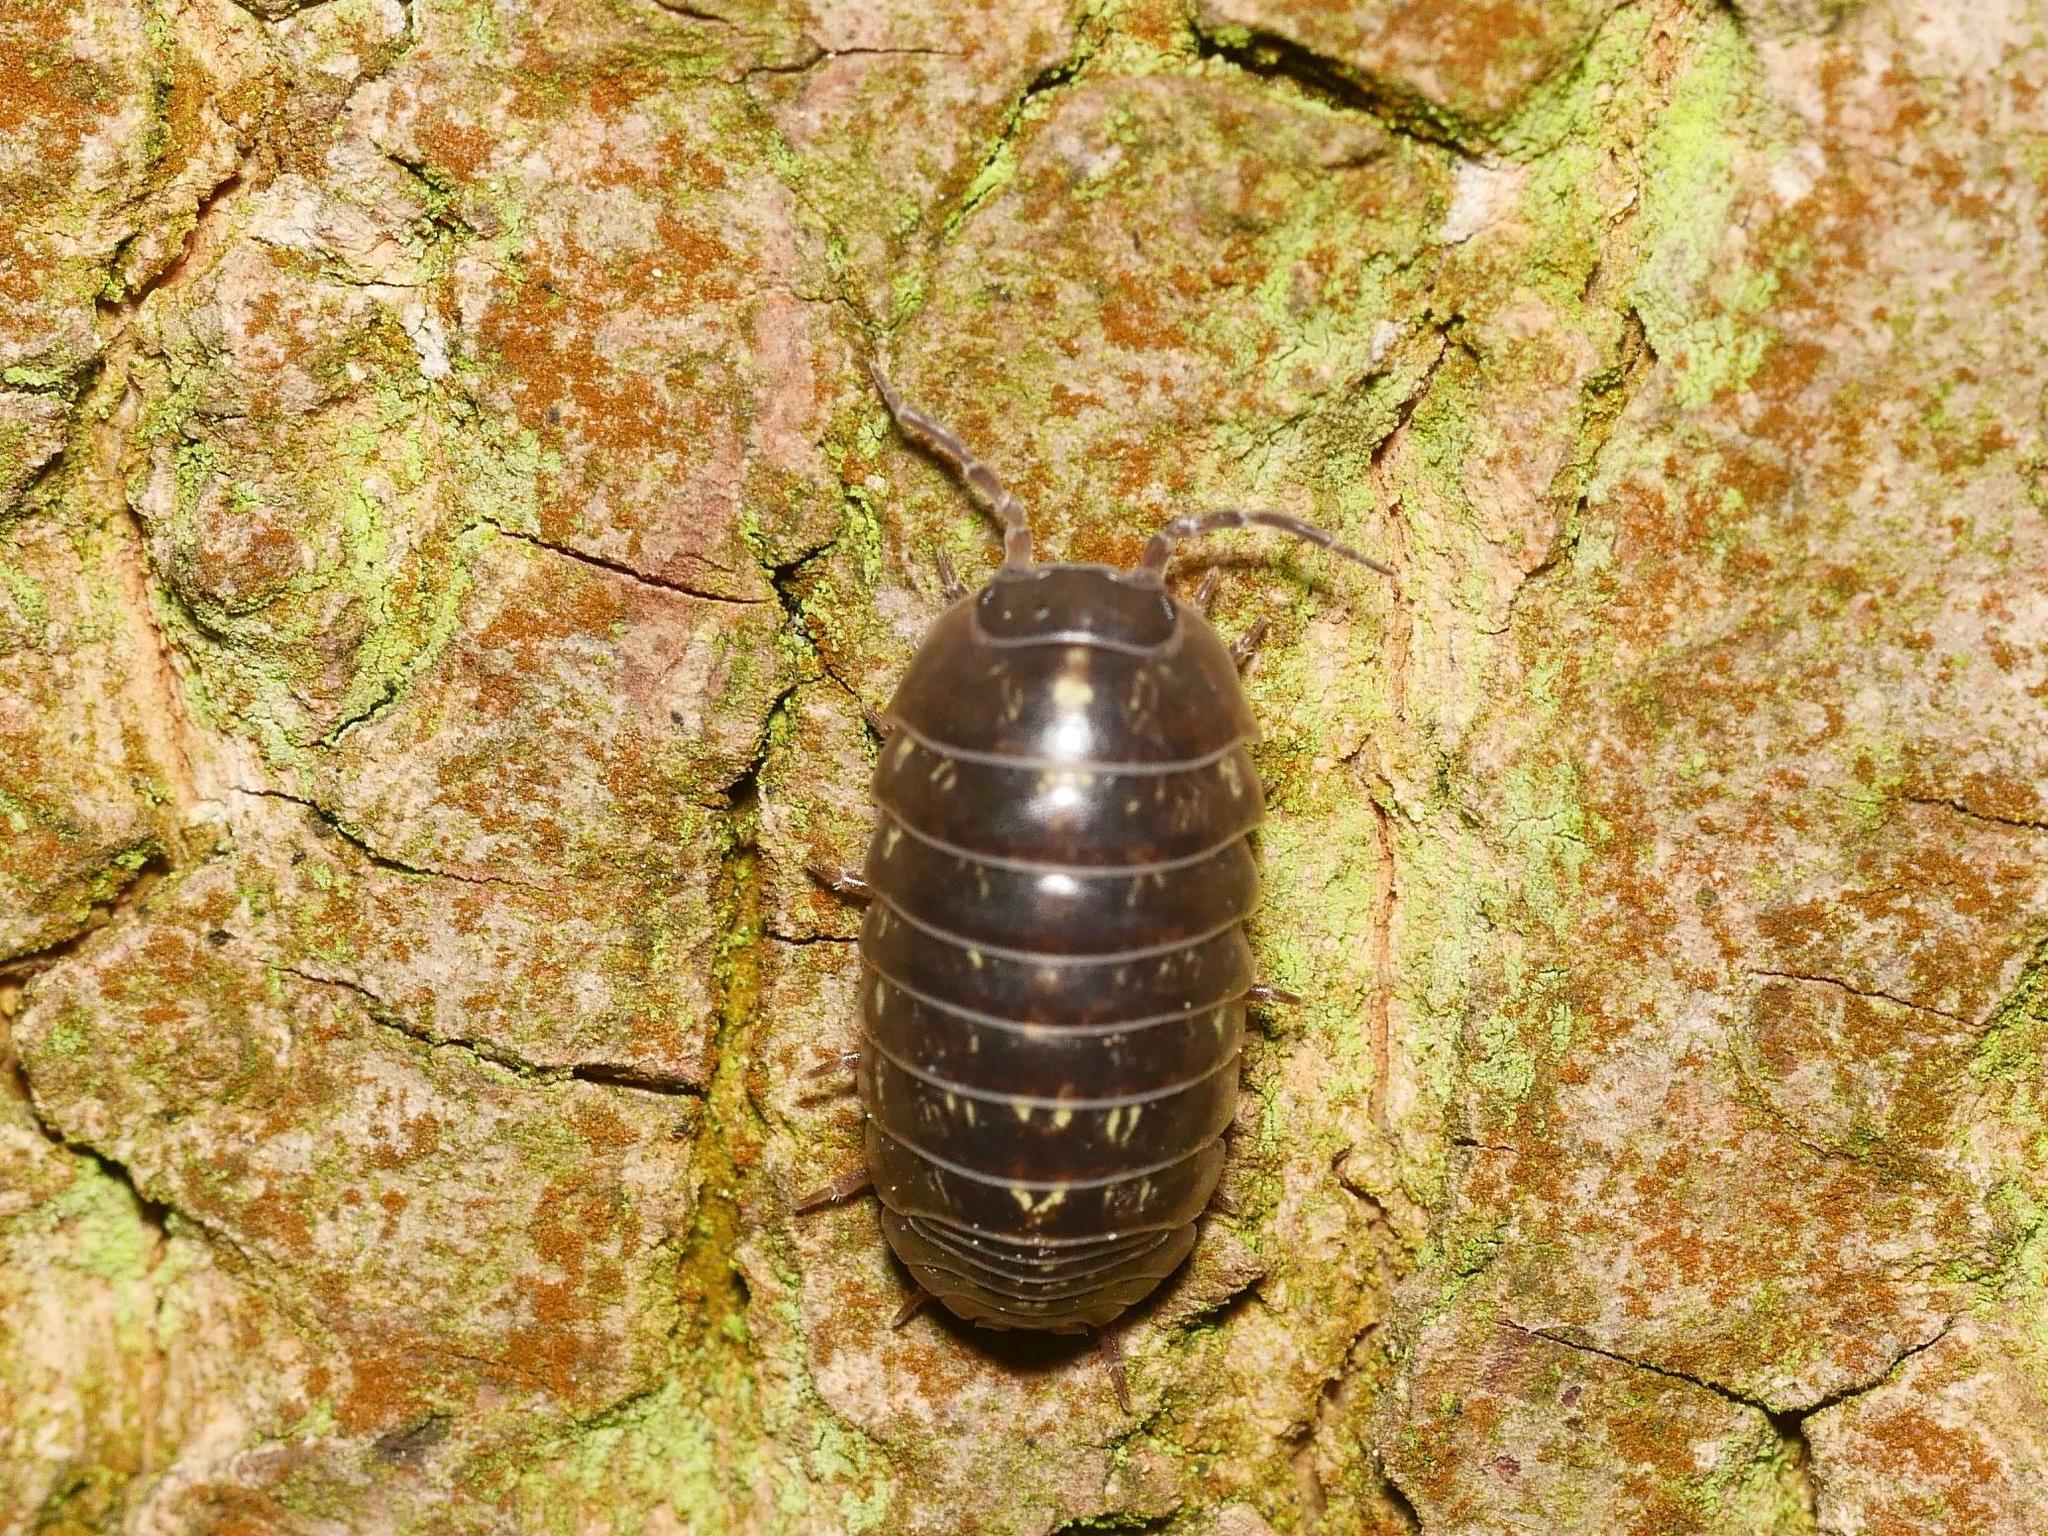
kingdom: Animalia
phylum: Arthropoda
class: Malacostraca
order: Isopoda
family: Armadillidiidae
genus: Armadillidium
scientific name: Armadillidium vulgare
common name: Common pill woodlouse
